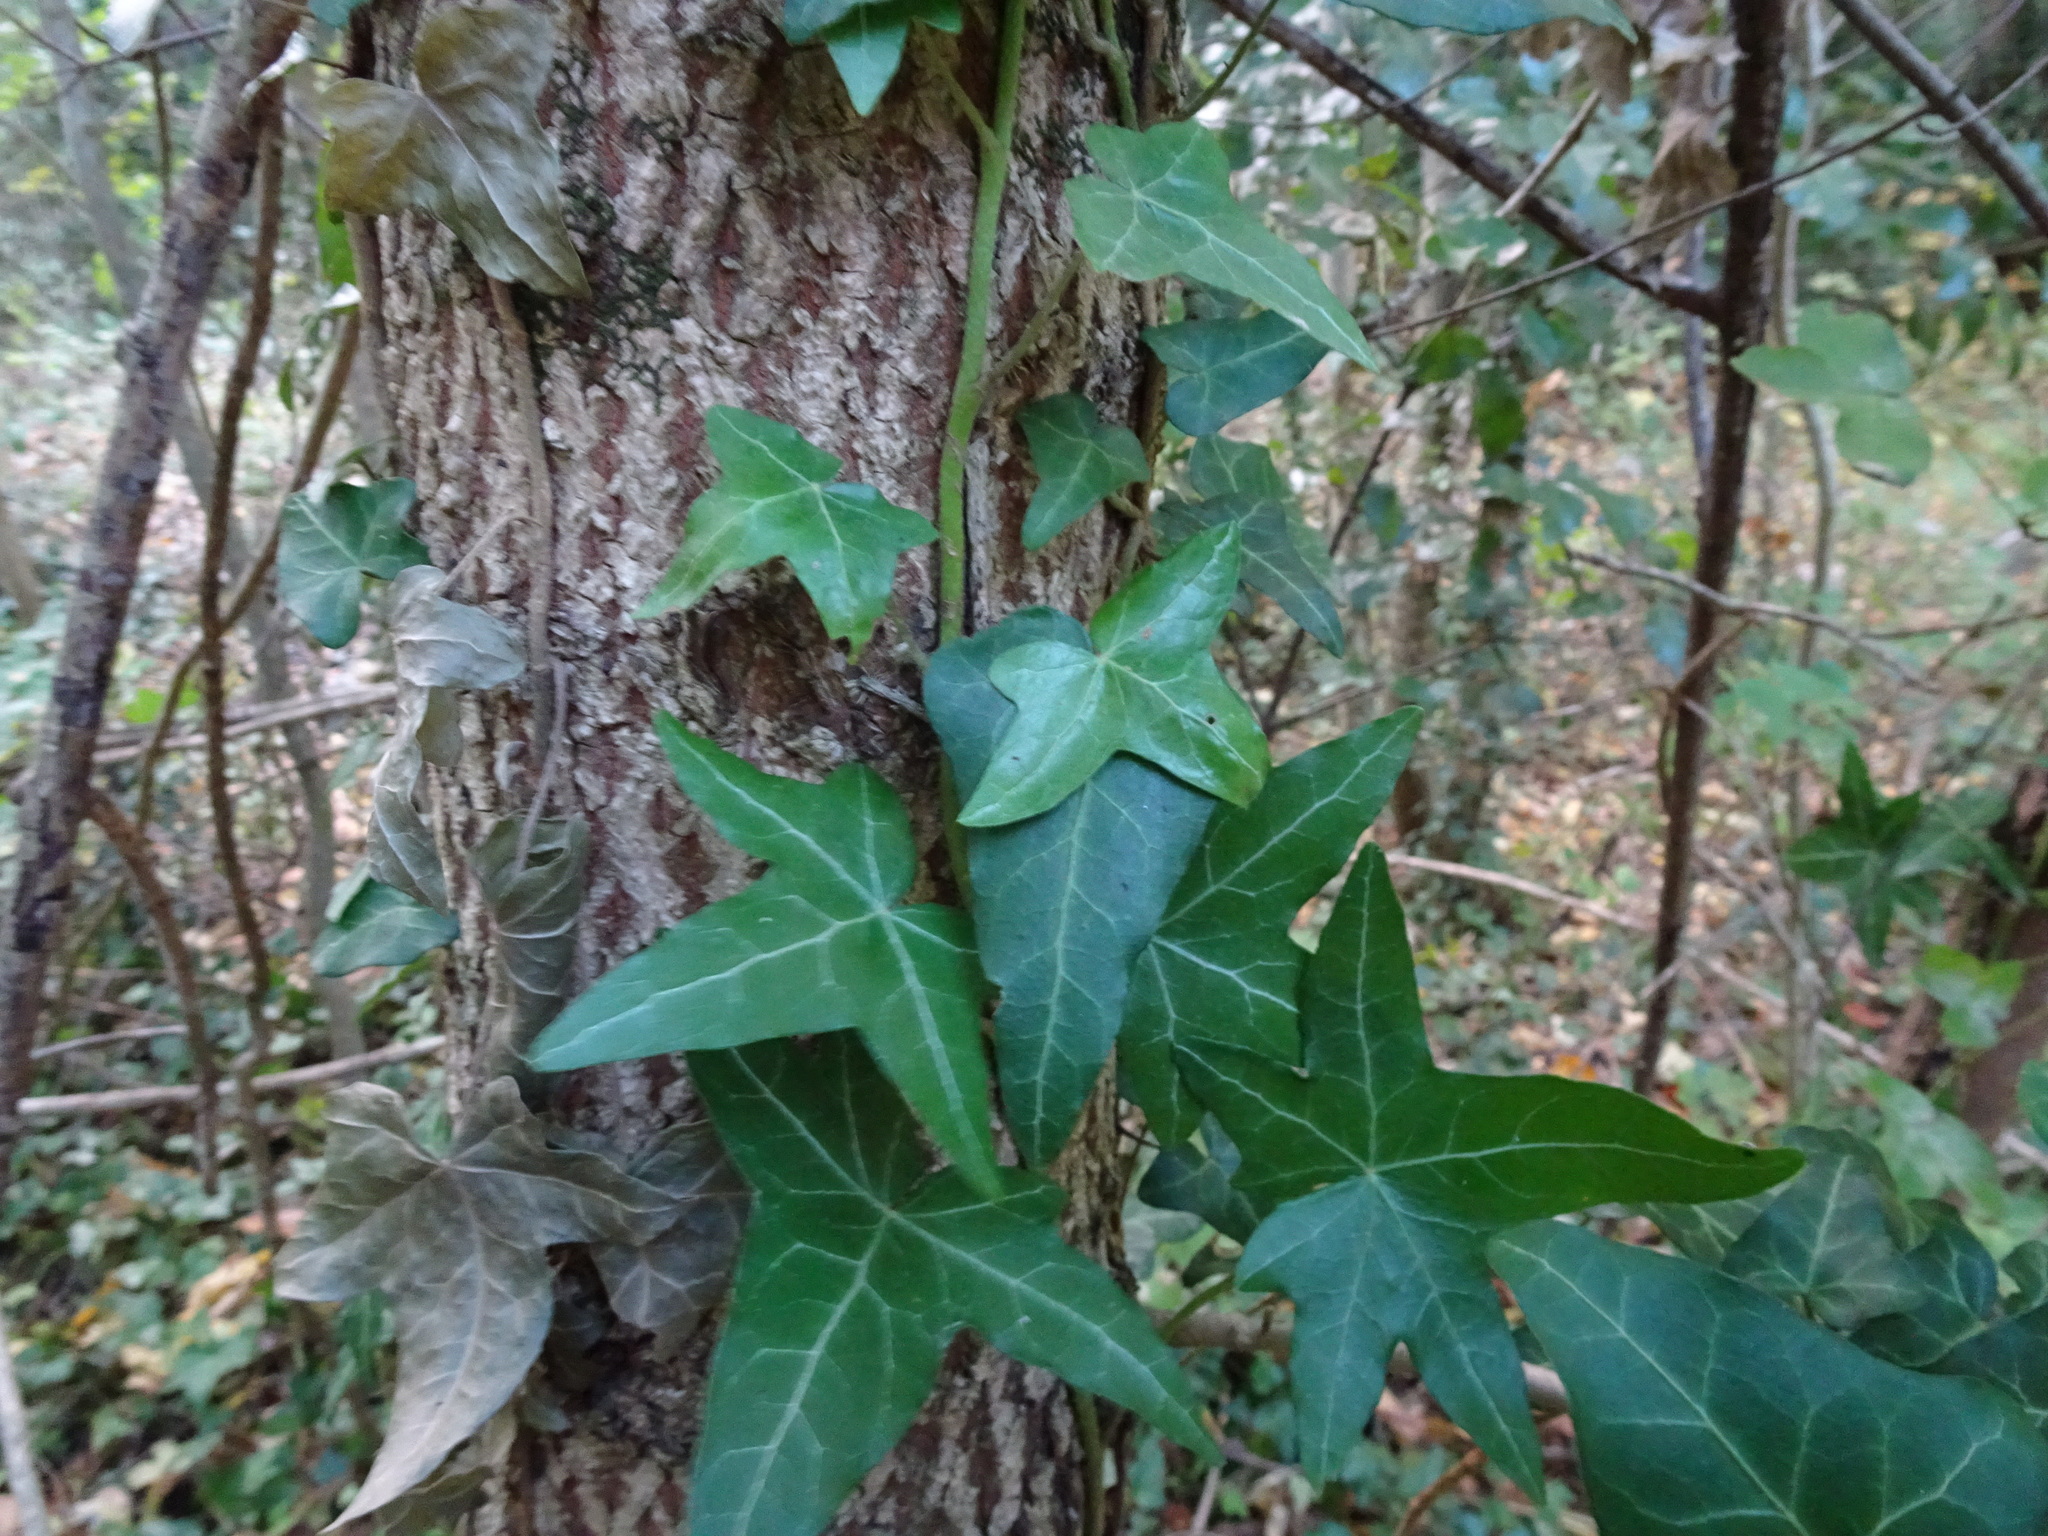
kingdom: Plantae
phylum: Tracheophyta
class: Magnoliopsida
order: Apiales
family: Araliaceae
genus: Hedera
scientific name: Hedera helix
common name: Ivy
